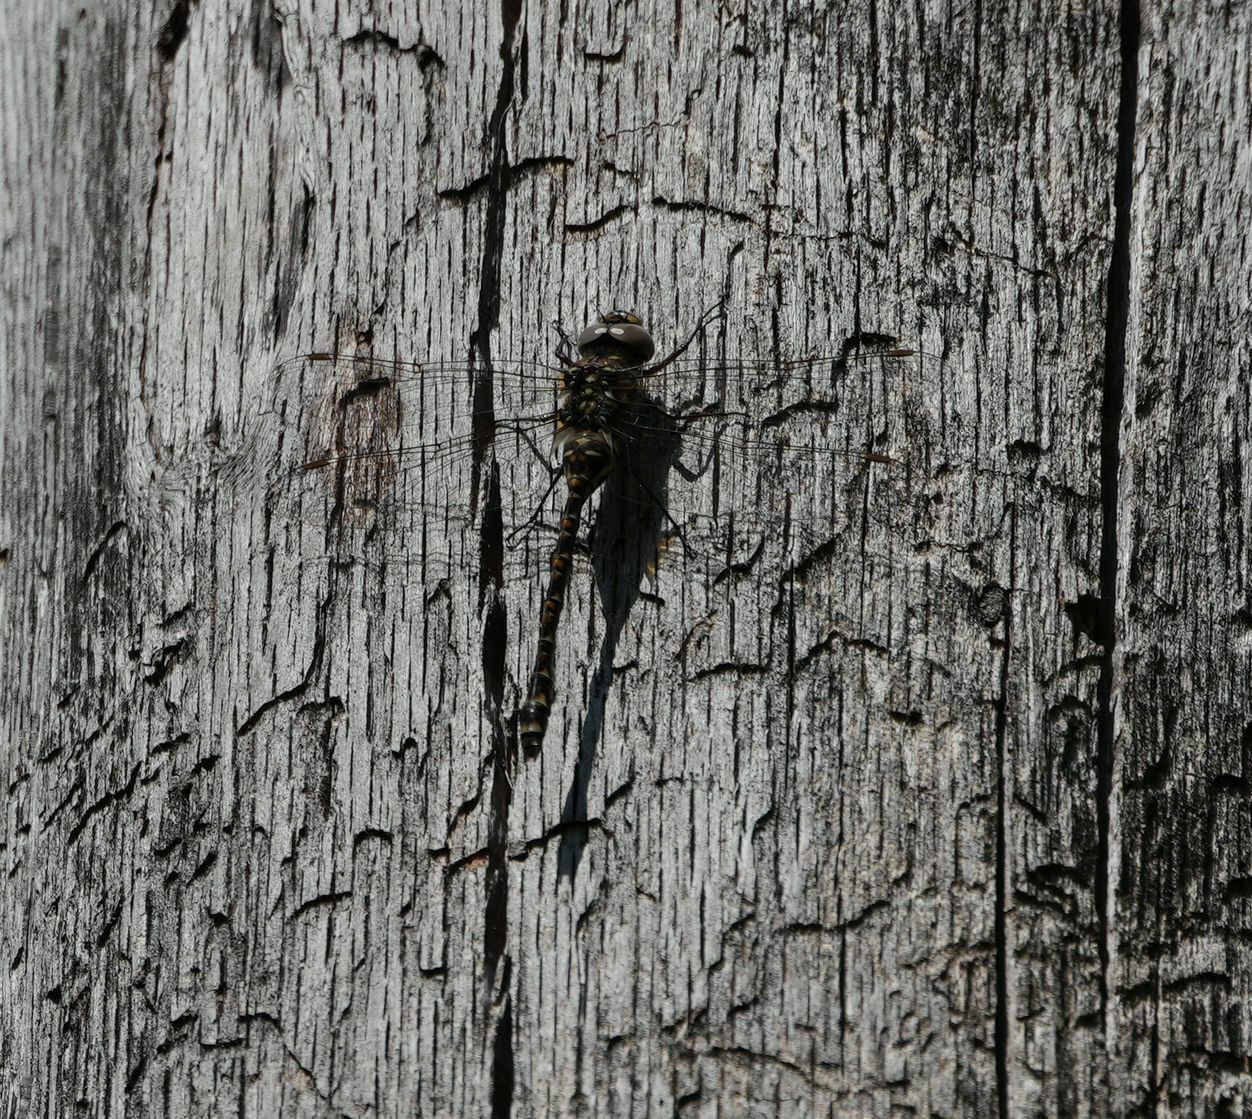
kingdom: Animalia
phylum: Arthropoda
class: Insecta
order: Odonata
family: Aeshnidae
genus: Gomphaeschna
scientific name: Gomphaeschna furcillata
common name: Harlequin darner
